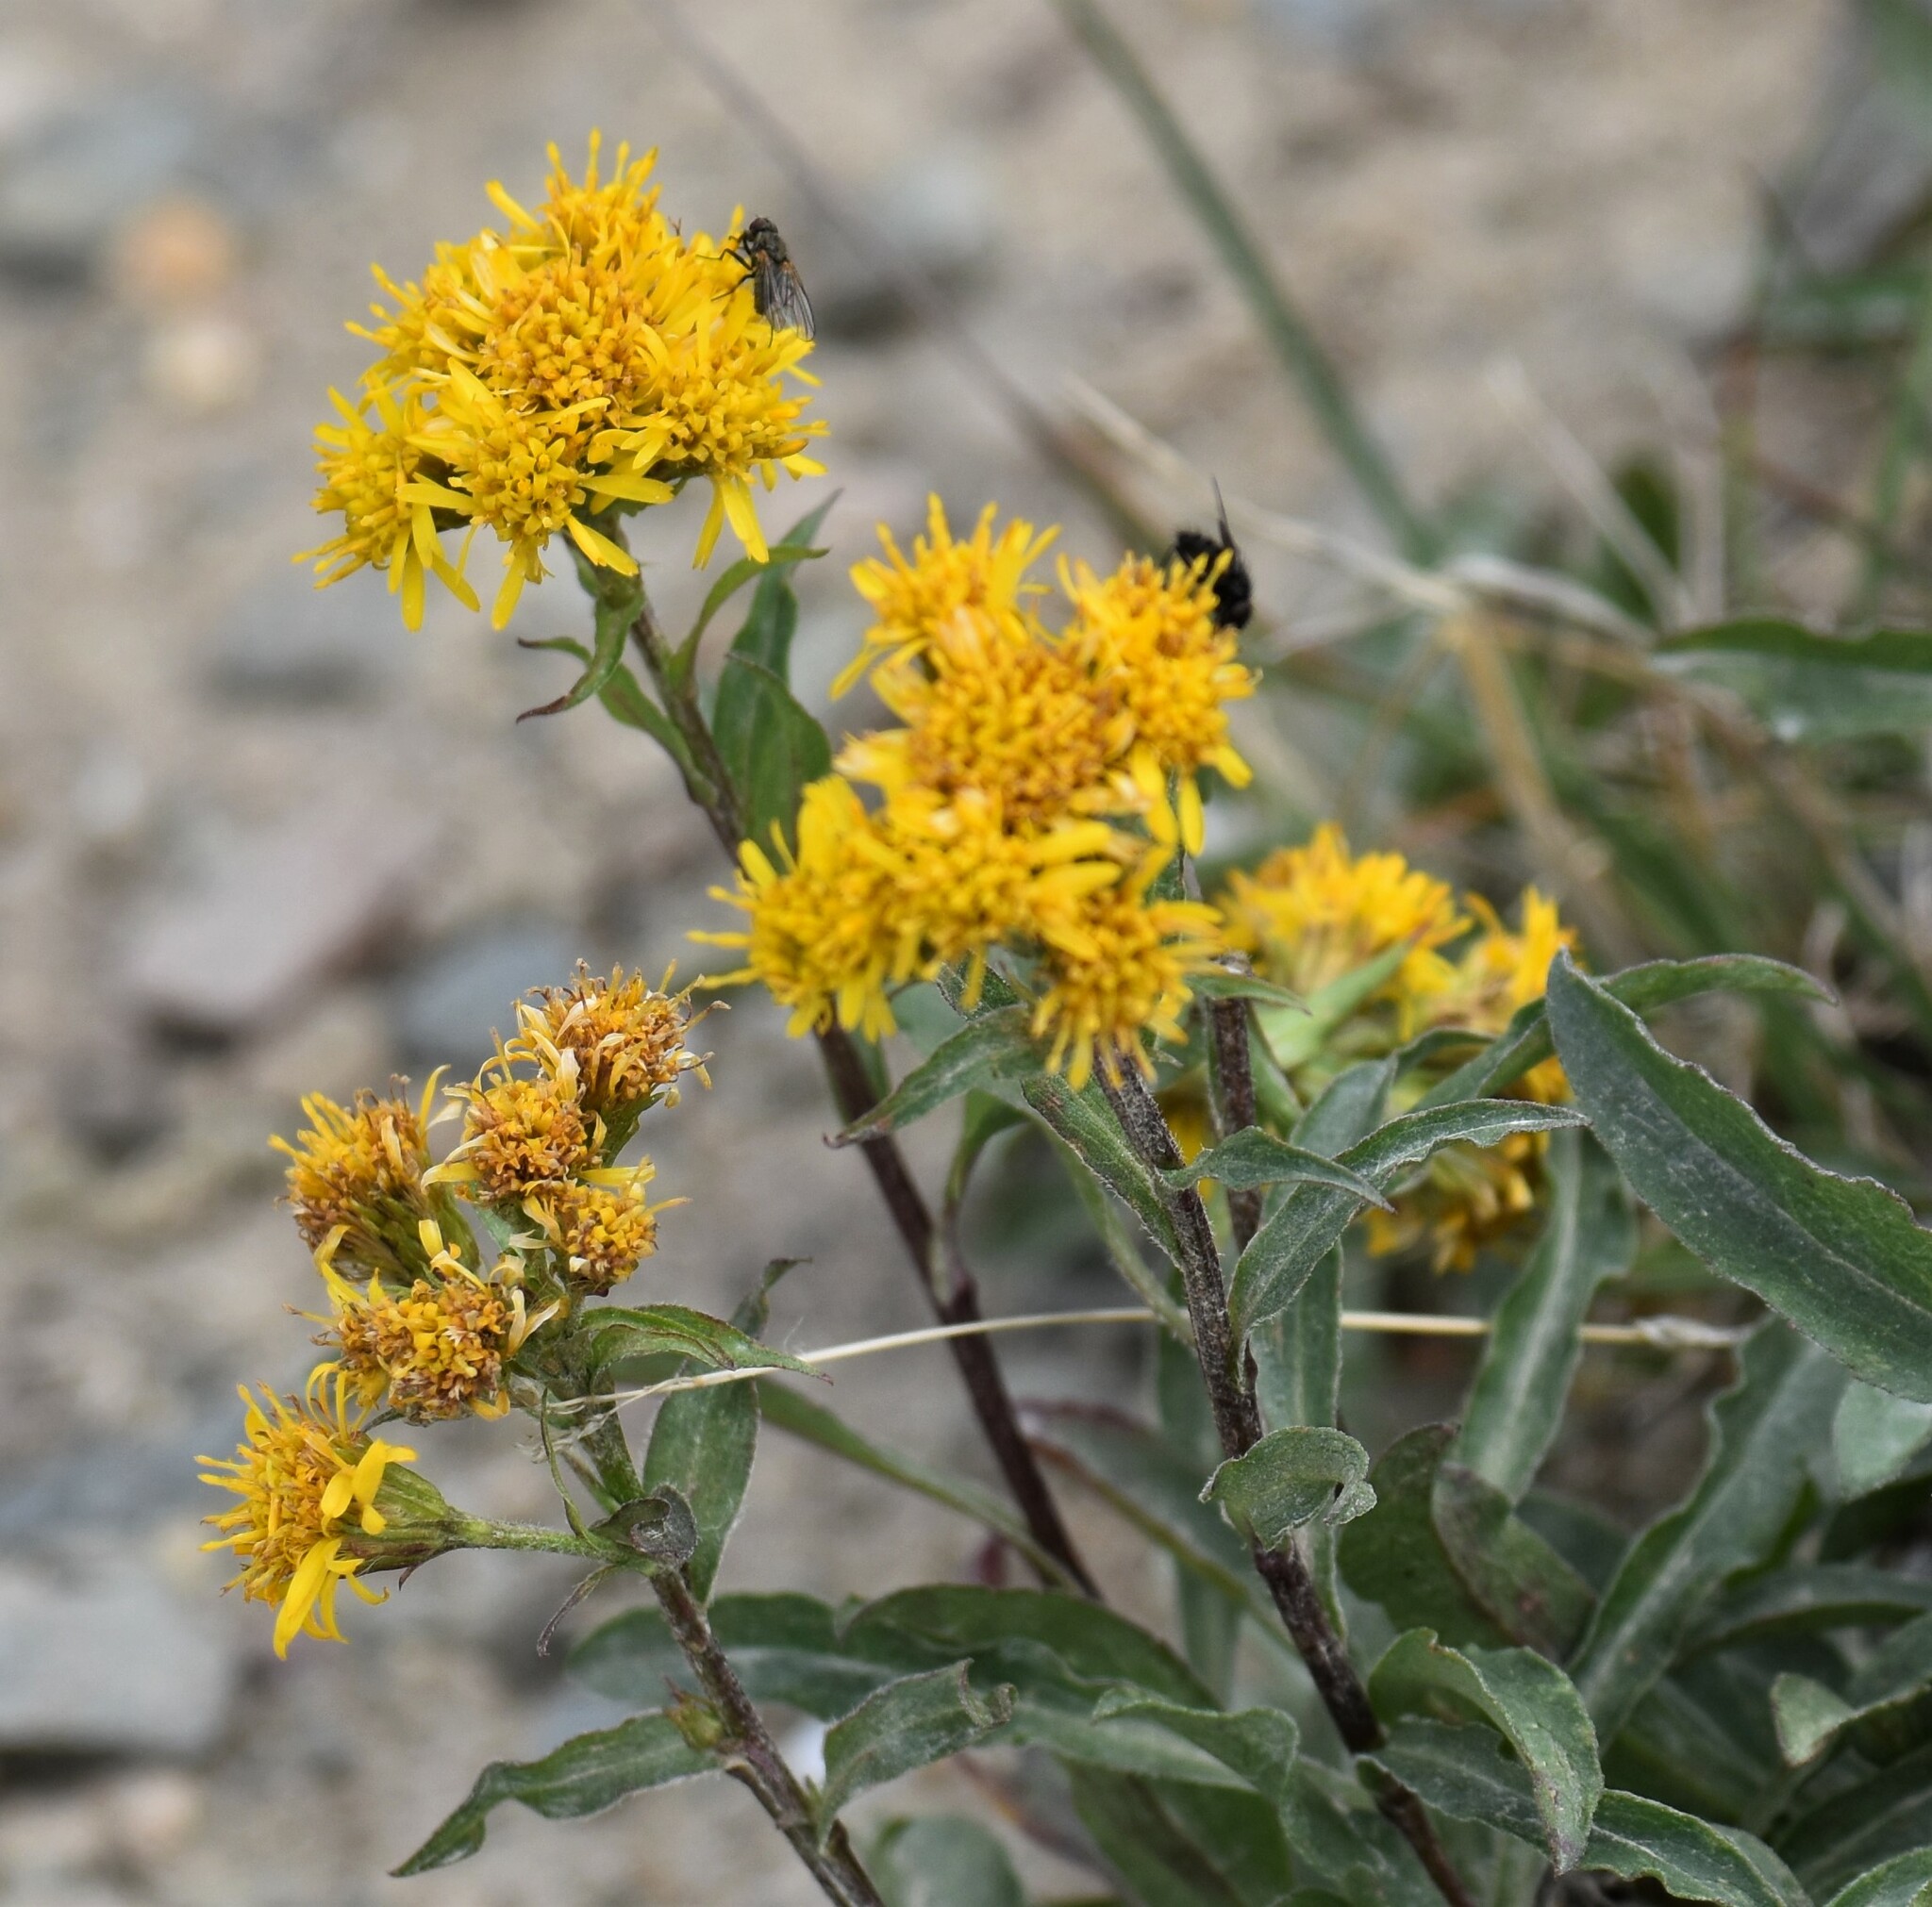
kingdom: Plantae
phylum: Tracheophyta
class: Magnoliopsida
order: Asterales
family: Asteraceae
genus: Solidago
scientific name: Solidago multiradiata
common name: Northern goldenrod
